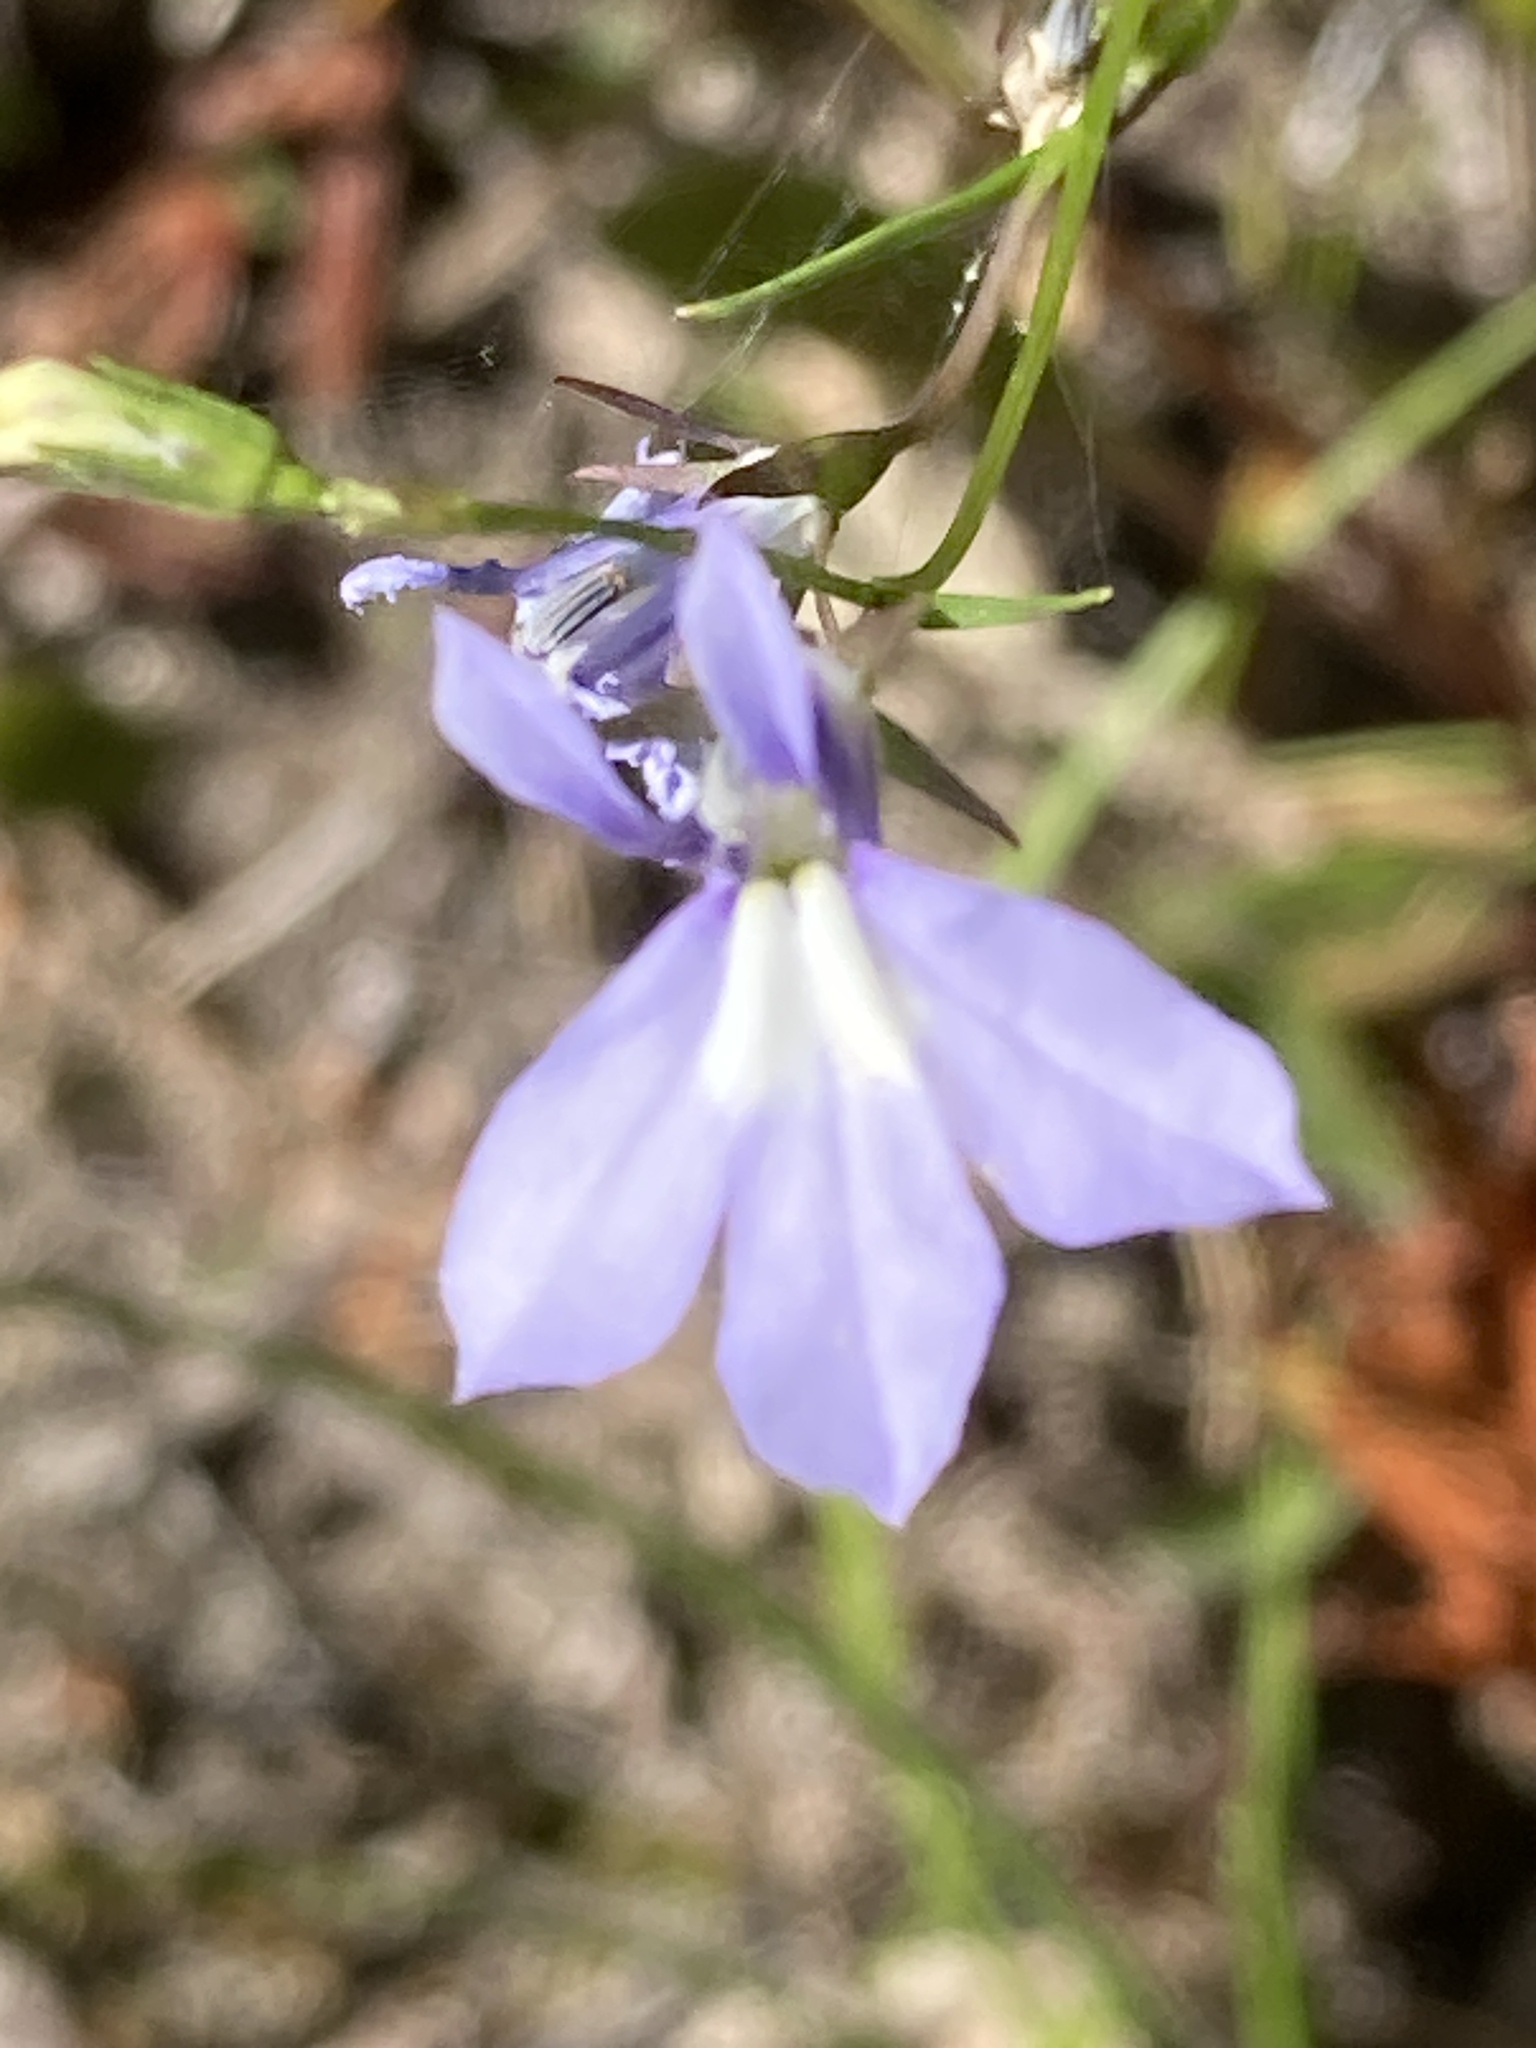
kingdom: Plantae
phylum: Tracheophyta
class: Magnoliopsida
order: Asterales
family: Campanulaceae
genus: Lobelia
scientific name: Lobelia kalmii
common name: Kalm's lobelia
